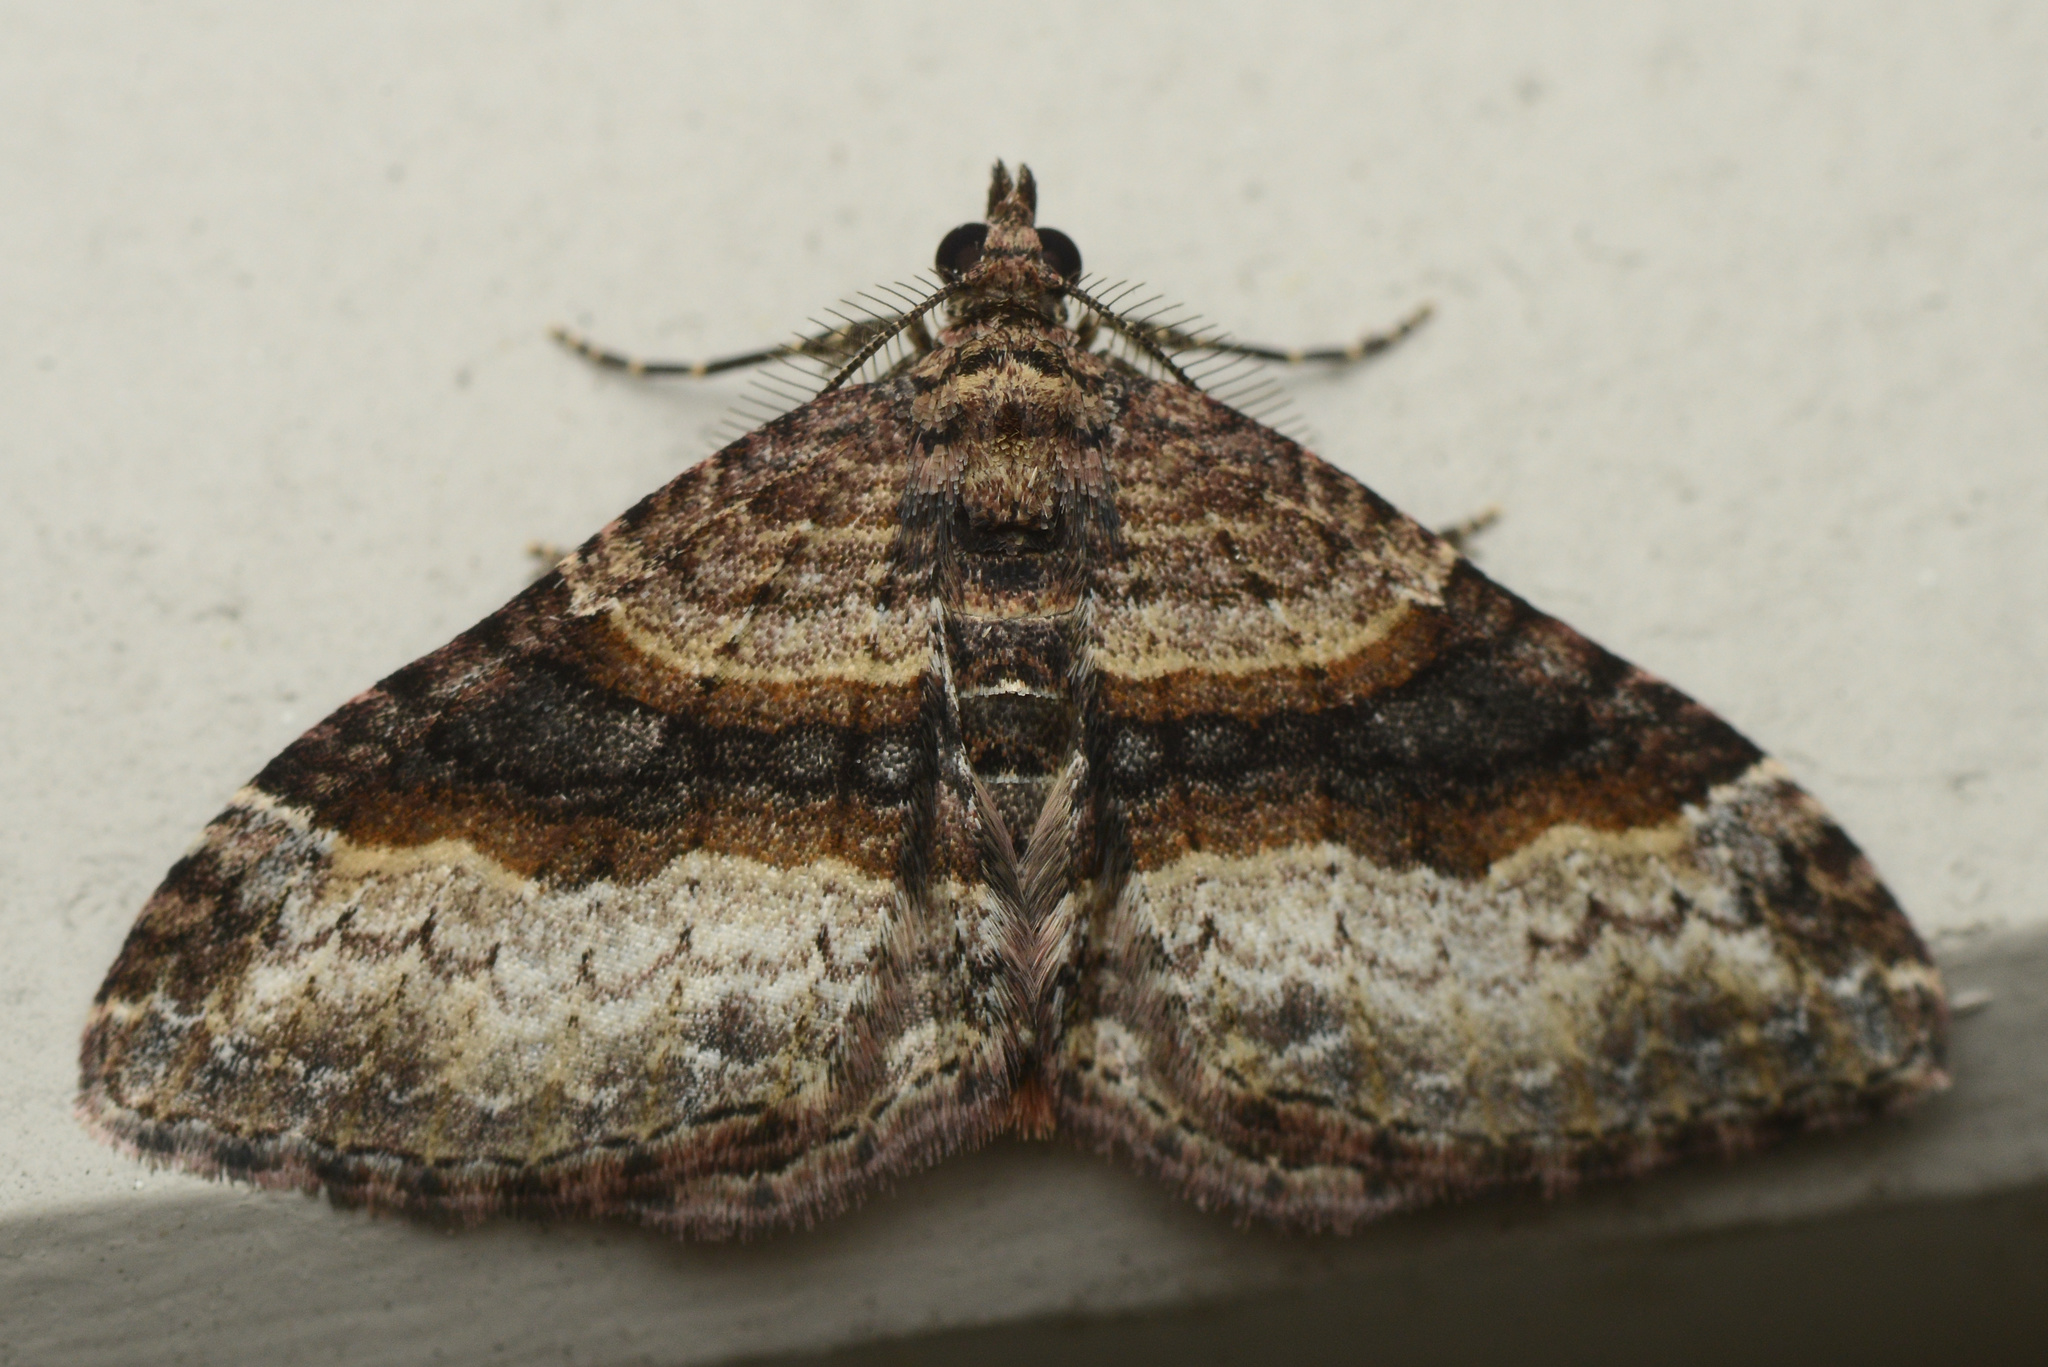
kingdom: Animalia
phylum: Arthropoda
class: Insecta
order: Lepidoptera
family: Geometridae
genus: Epyaxa
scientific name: Epyaxa lucidata
